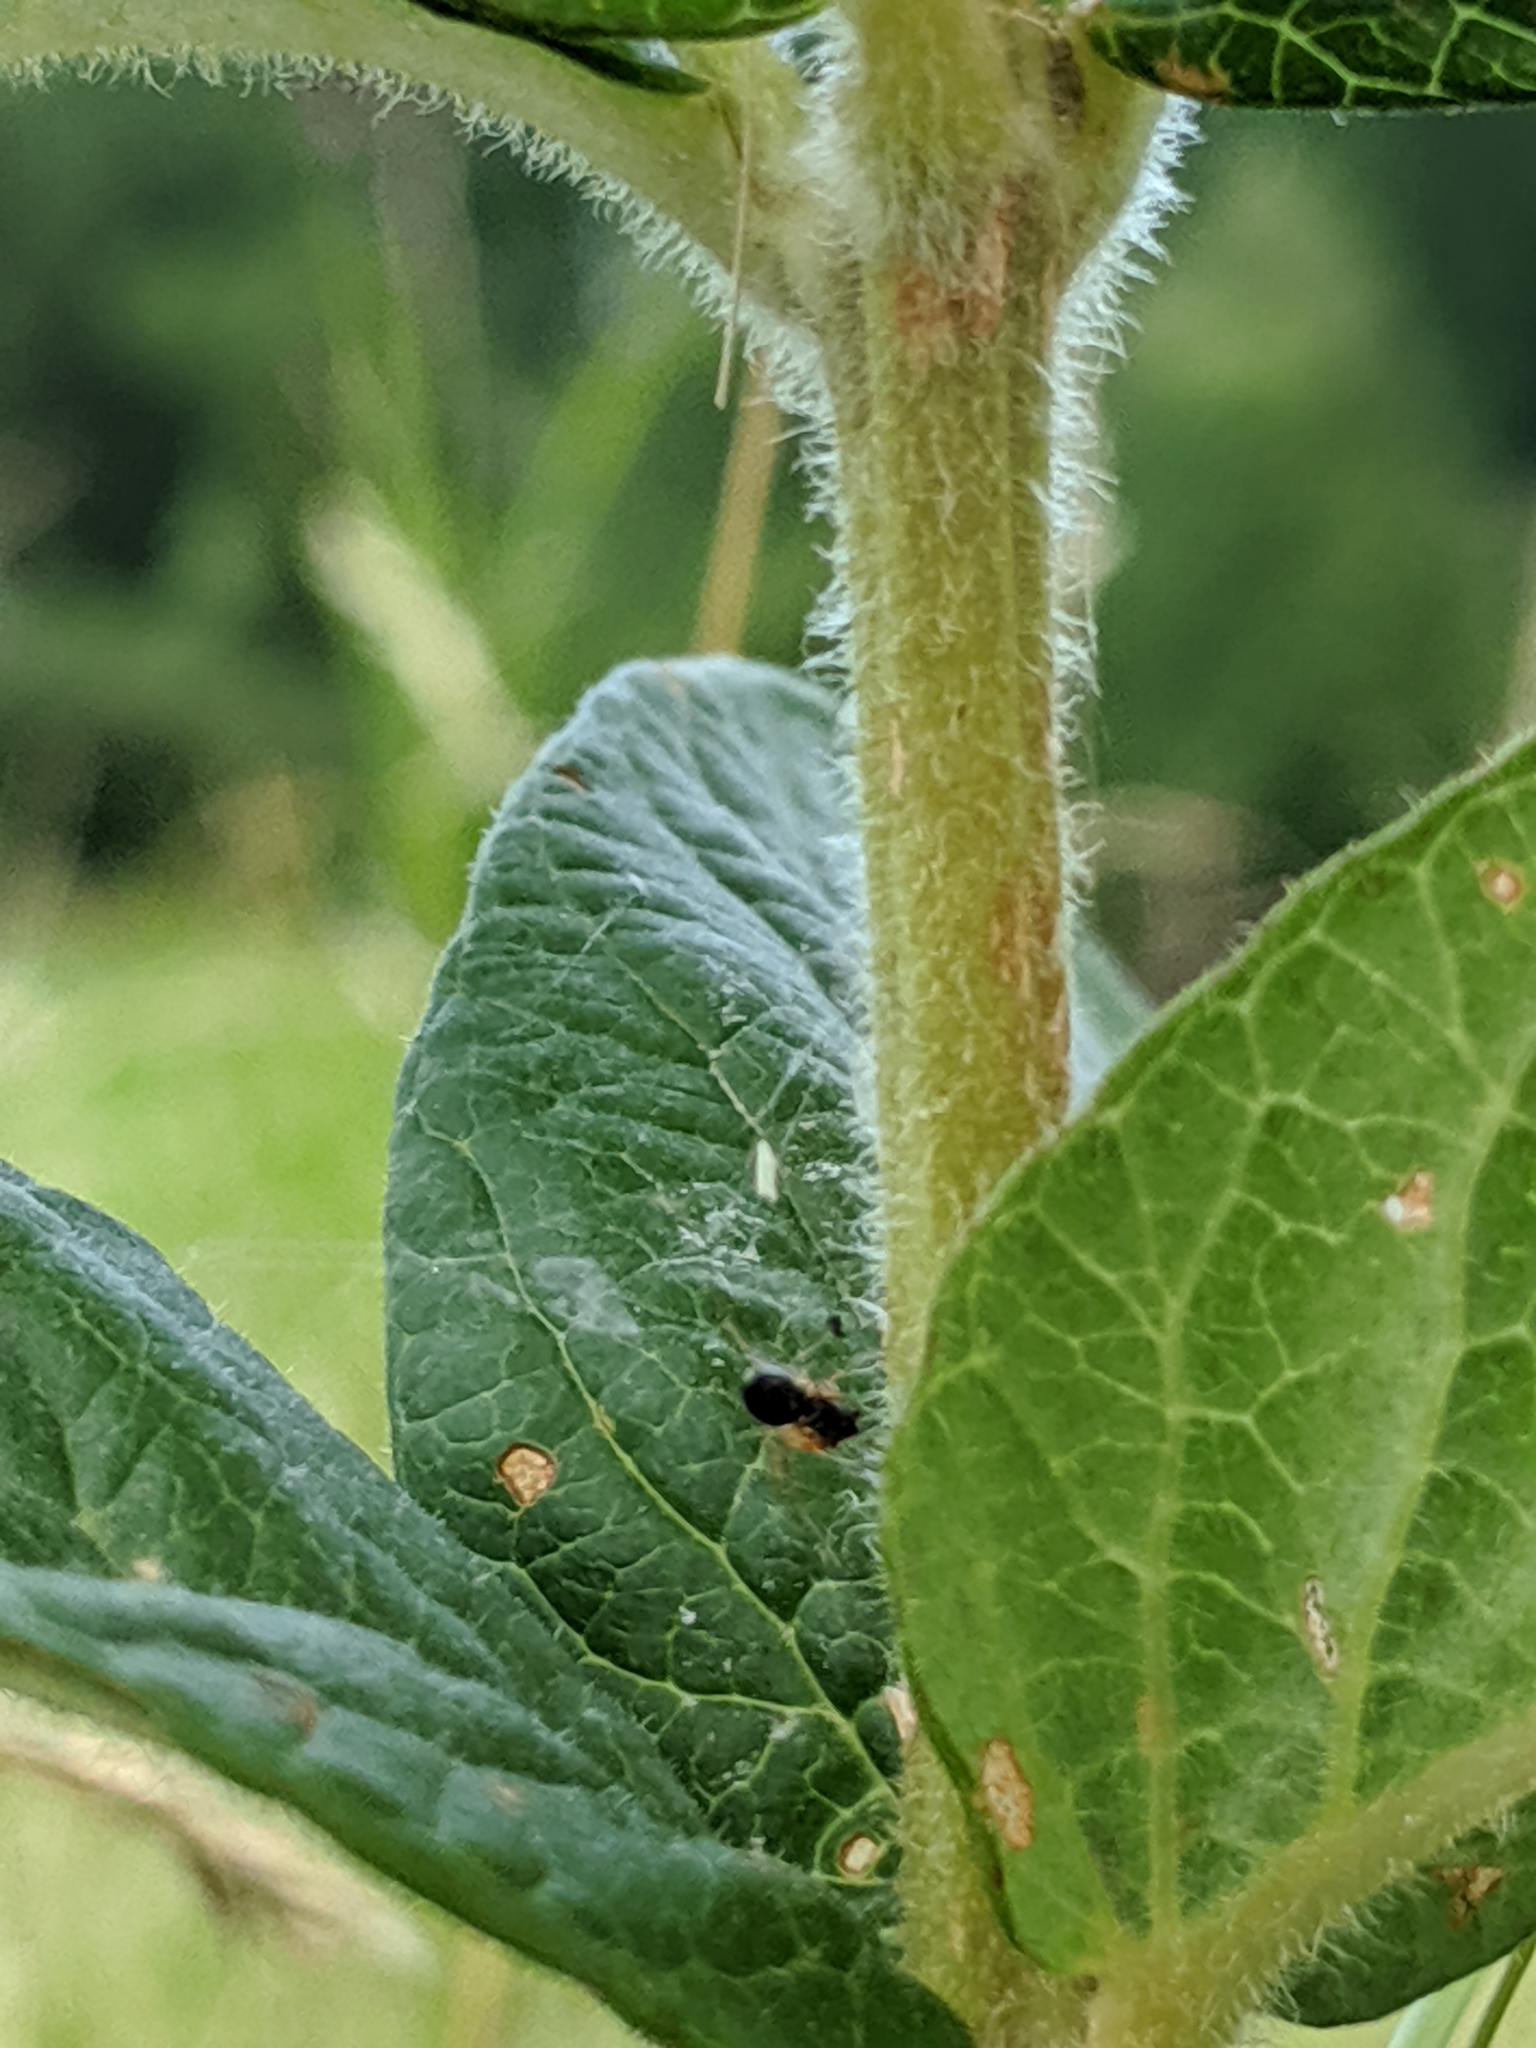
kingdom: Plantae
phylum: Tracheophyta
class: Magnoliopsida
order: Ericales
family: Primulaceae
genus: Lysimachia
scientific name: Lysimachia vulgaris
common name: Yellow loosestrife
